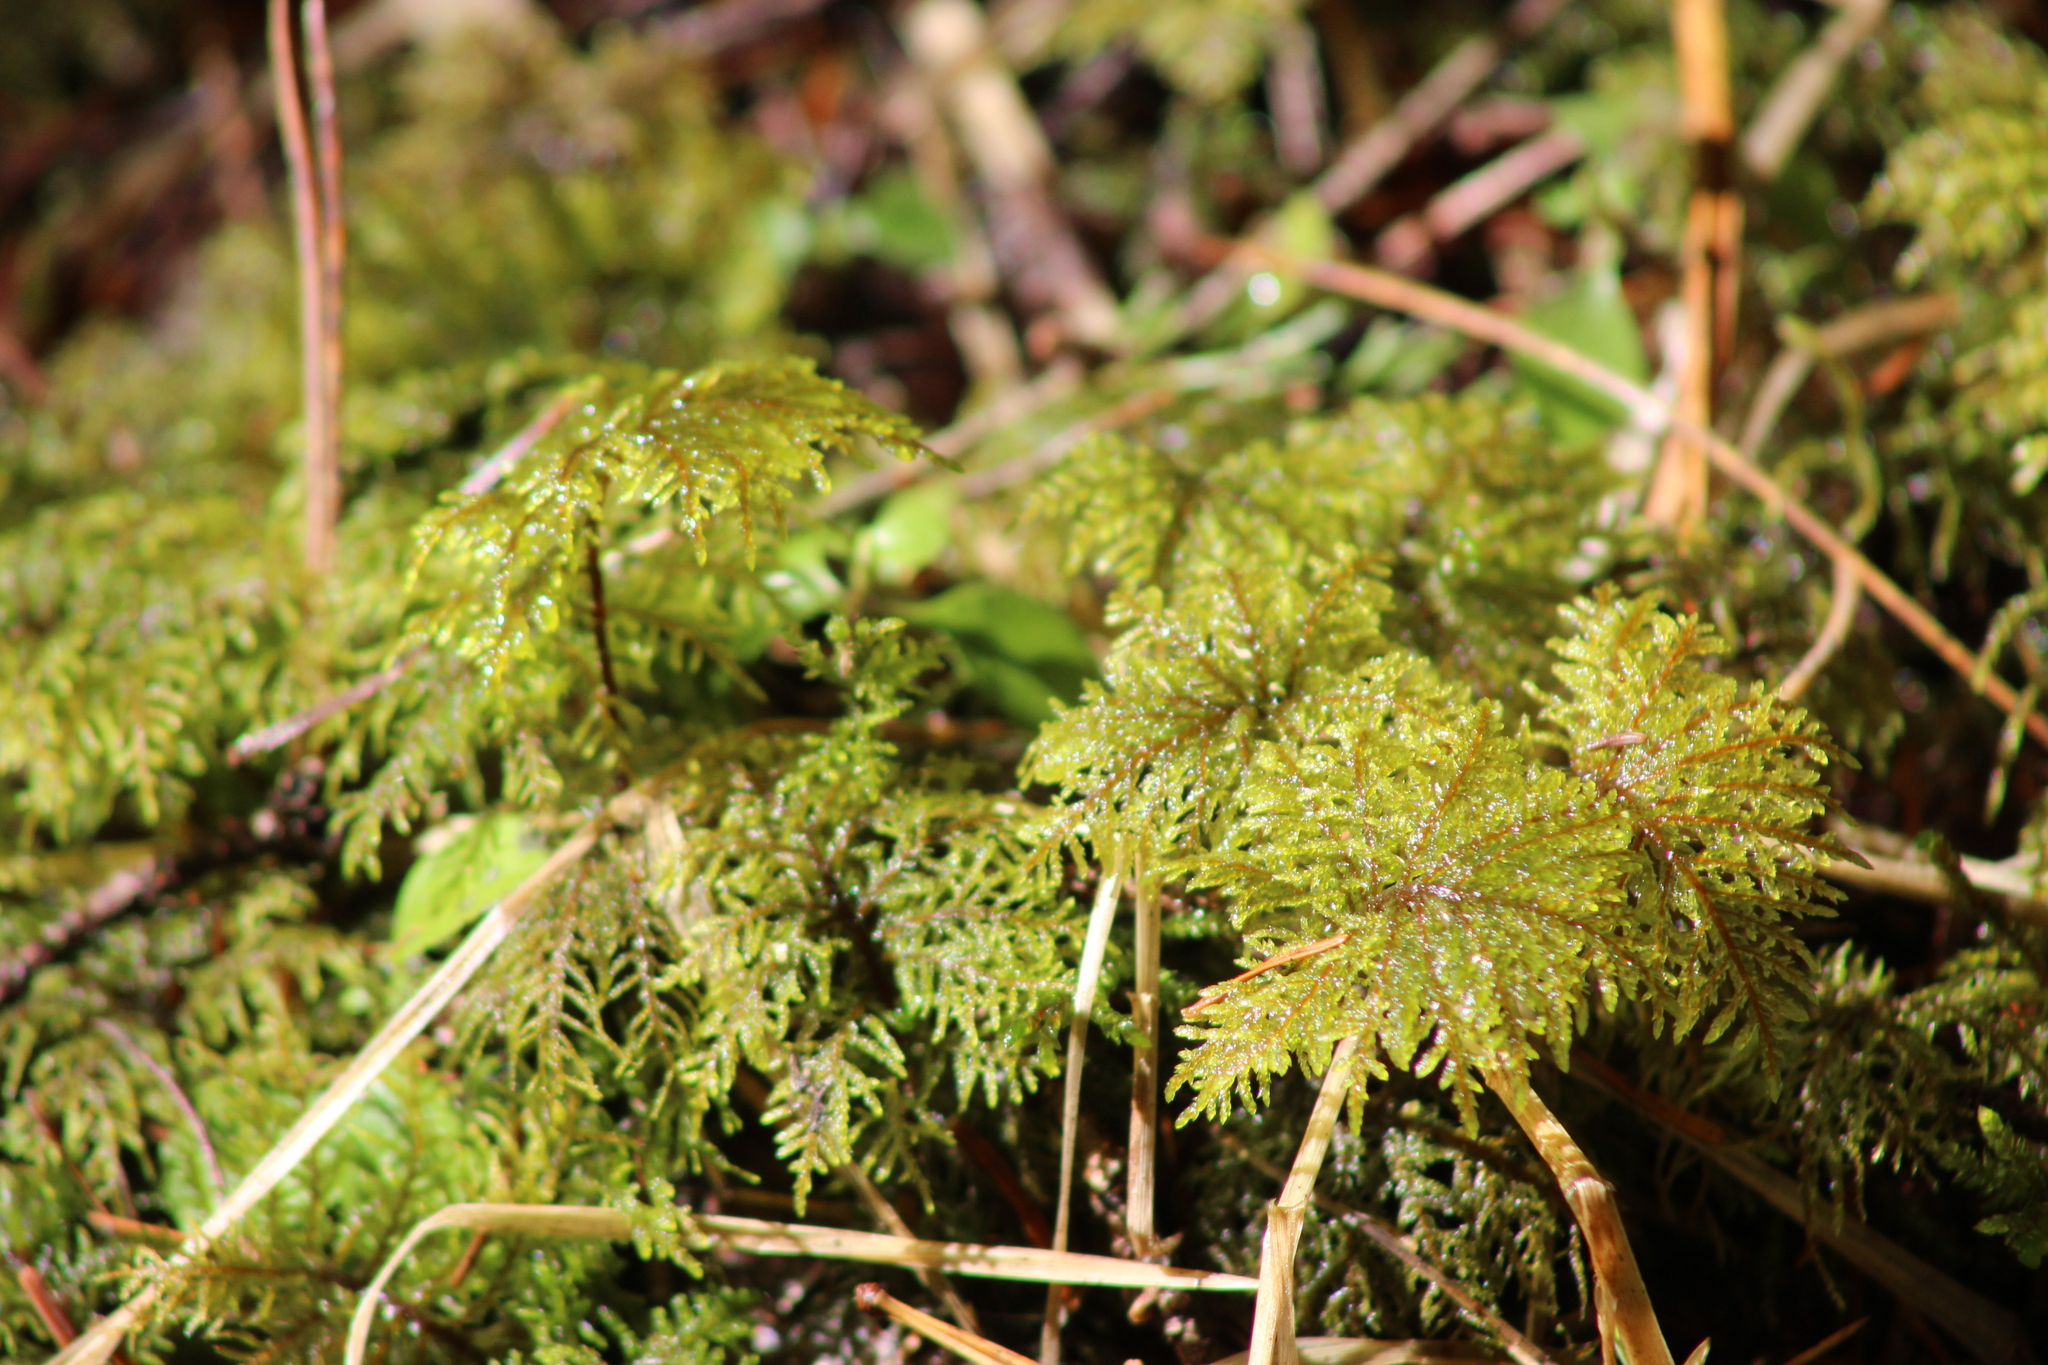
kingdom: Plantae
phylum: Bryophyta
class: Bryopsida
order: Hypnales
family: Hylocomiaceae
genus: Hylocomium
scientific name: Hylocomium splendens
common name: Stairstep moss
